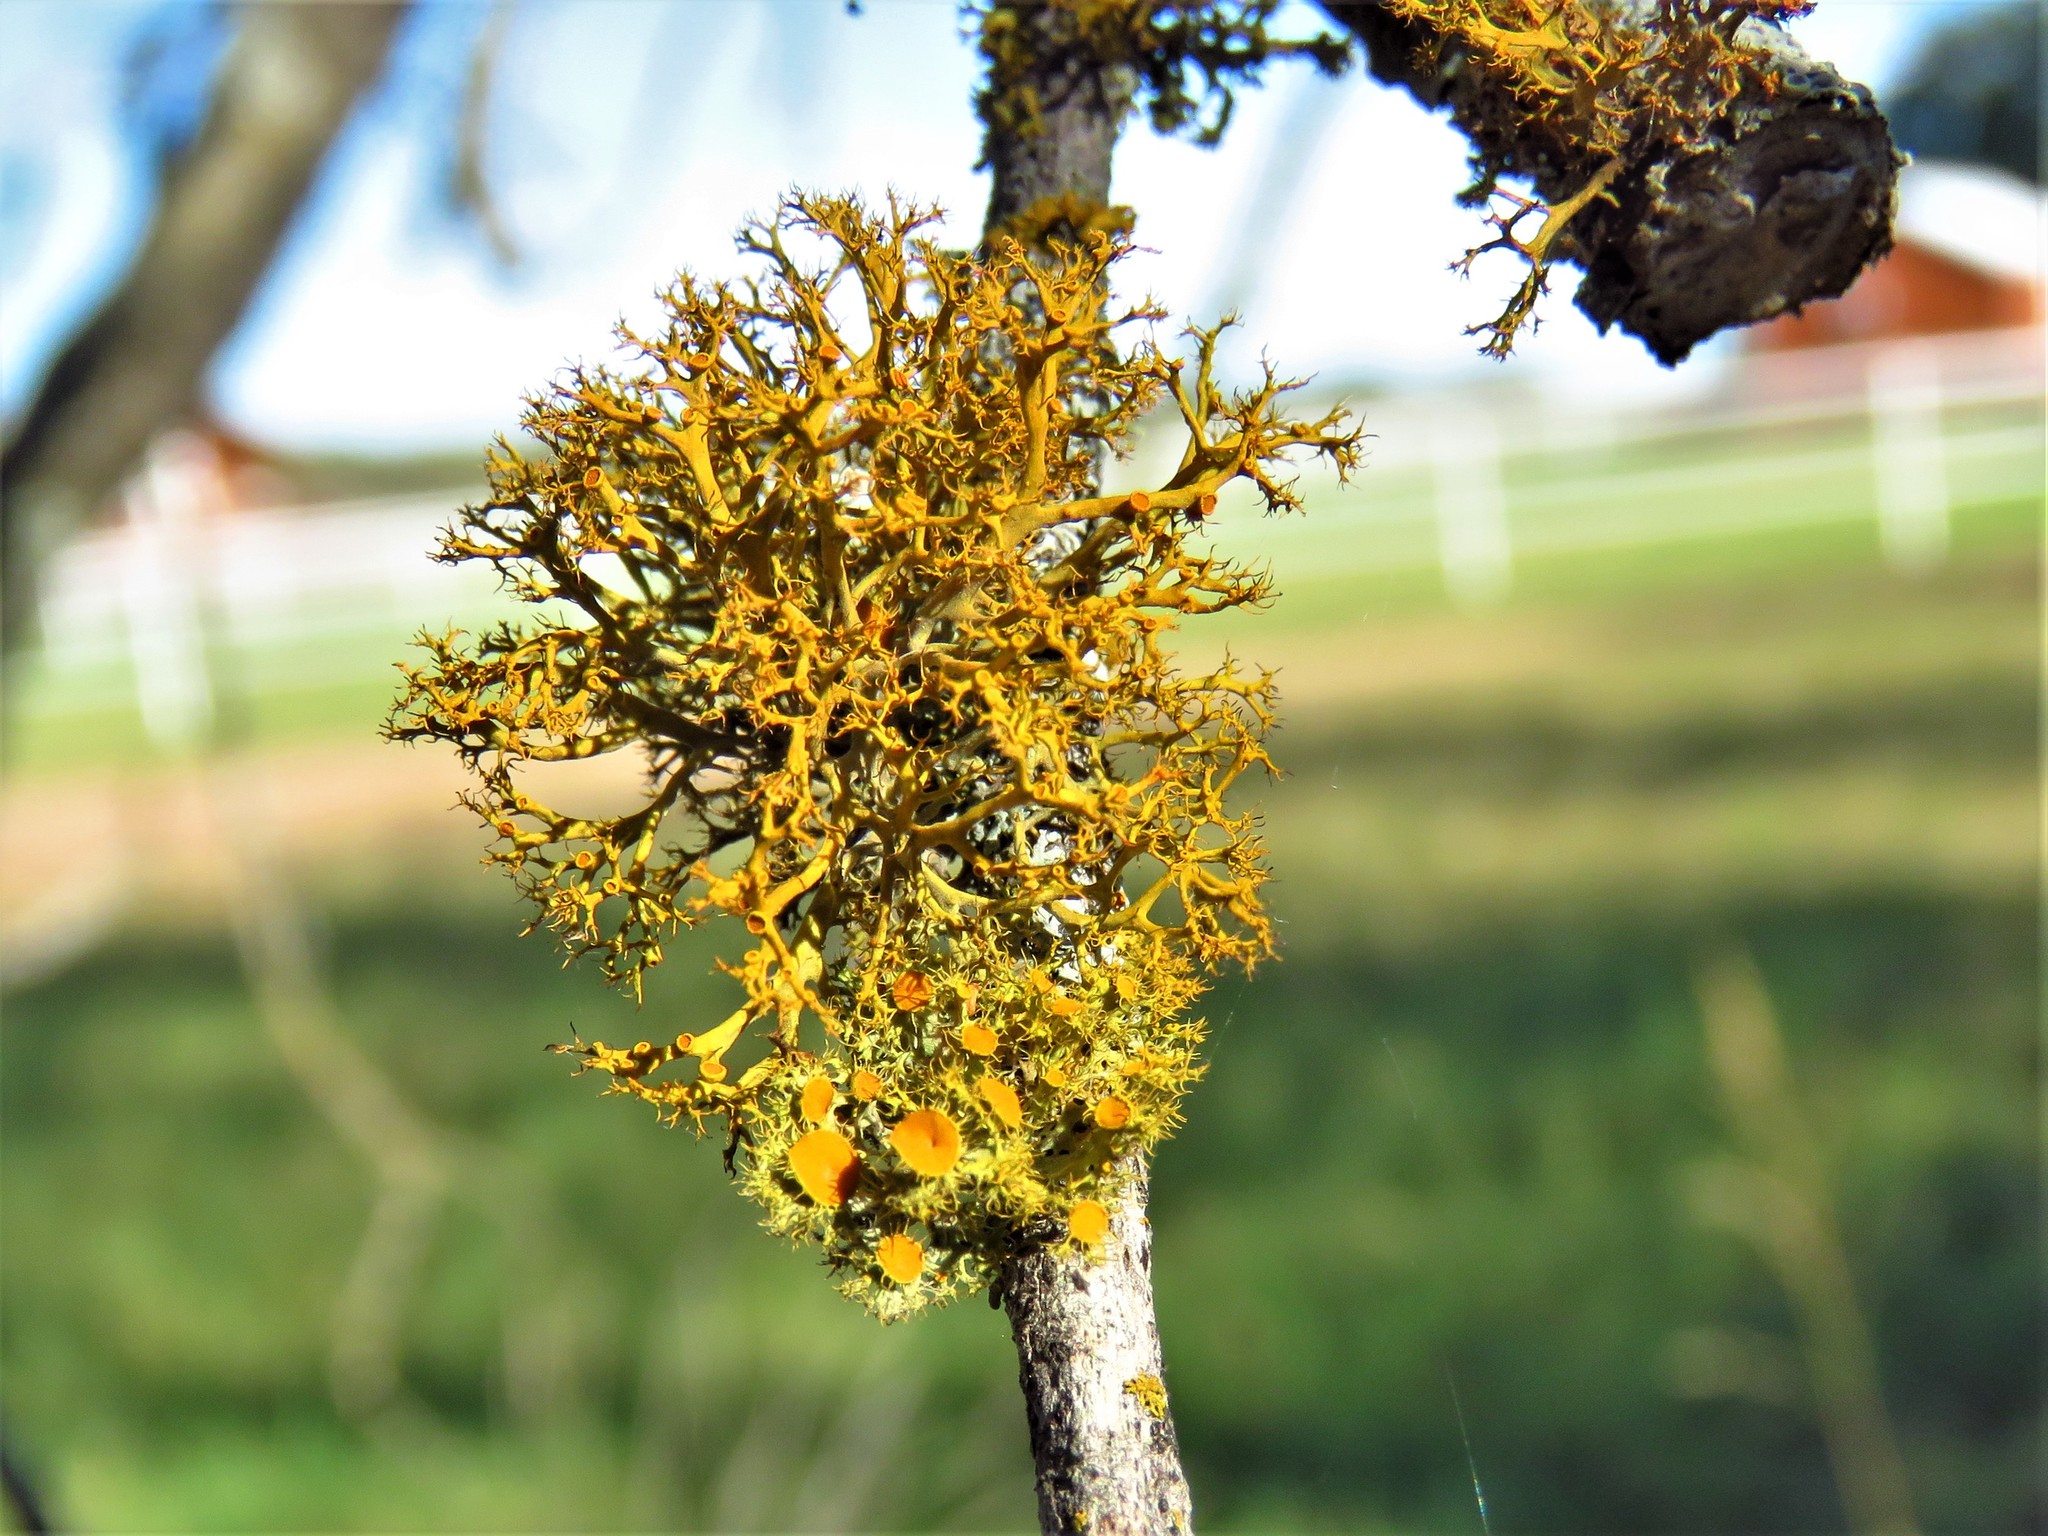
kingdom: Fungi
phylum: Ascomycota
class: Lecanoromycetes
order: Teloschistales
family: Teloschistaceae
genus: Niorma
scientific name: Niorma chrysophthalma
